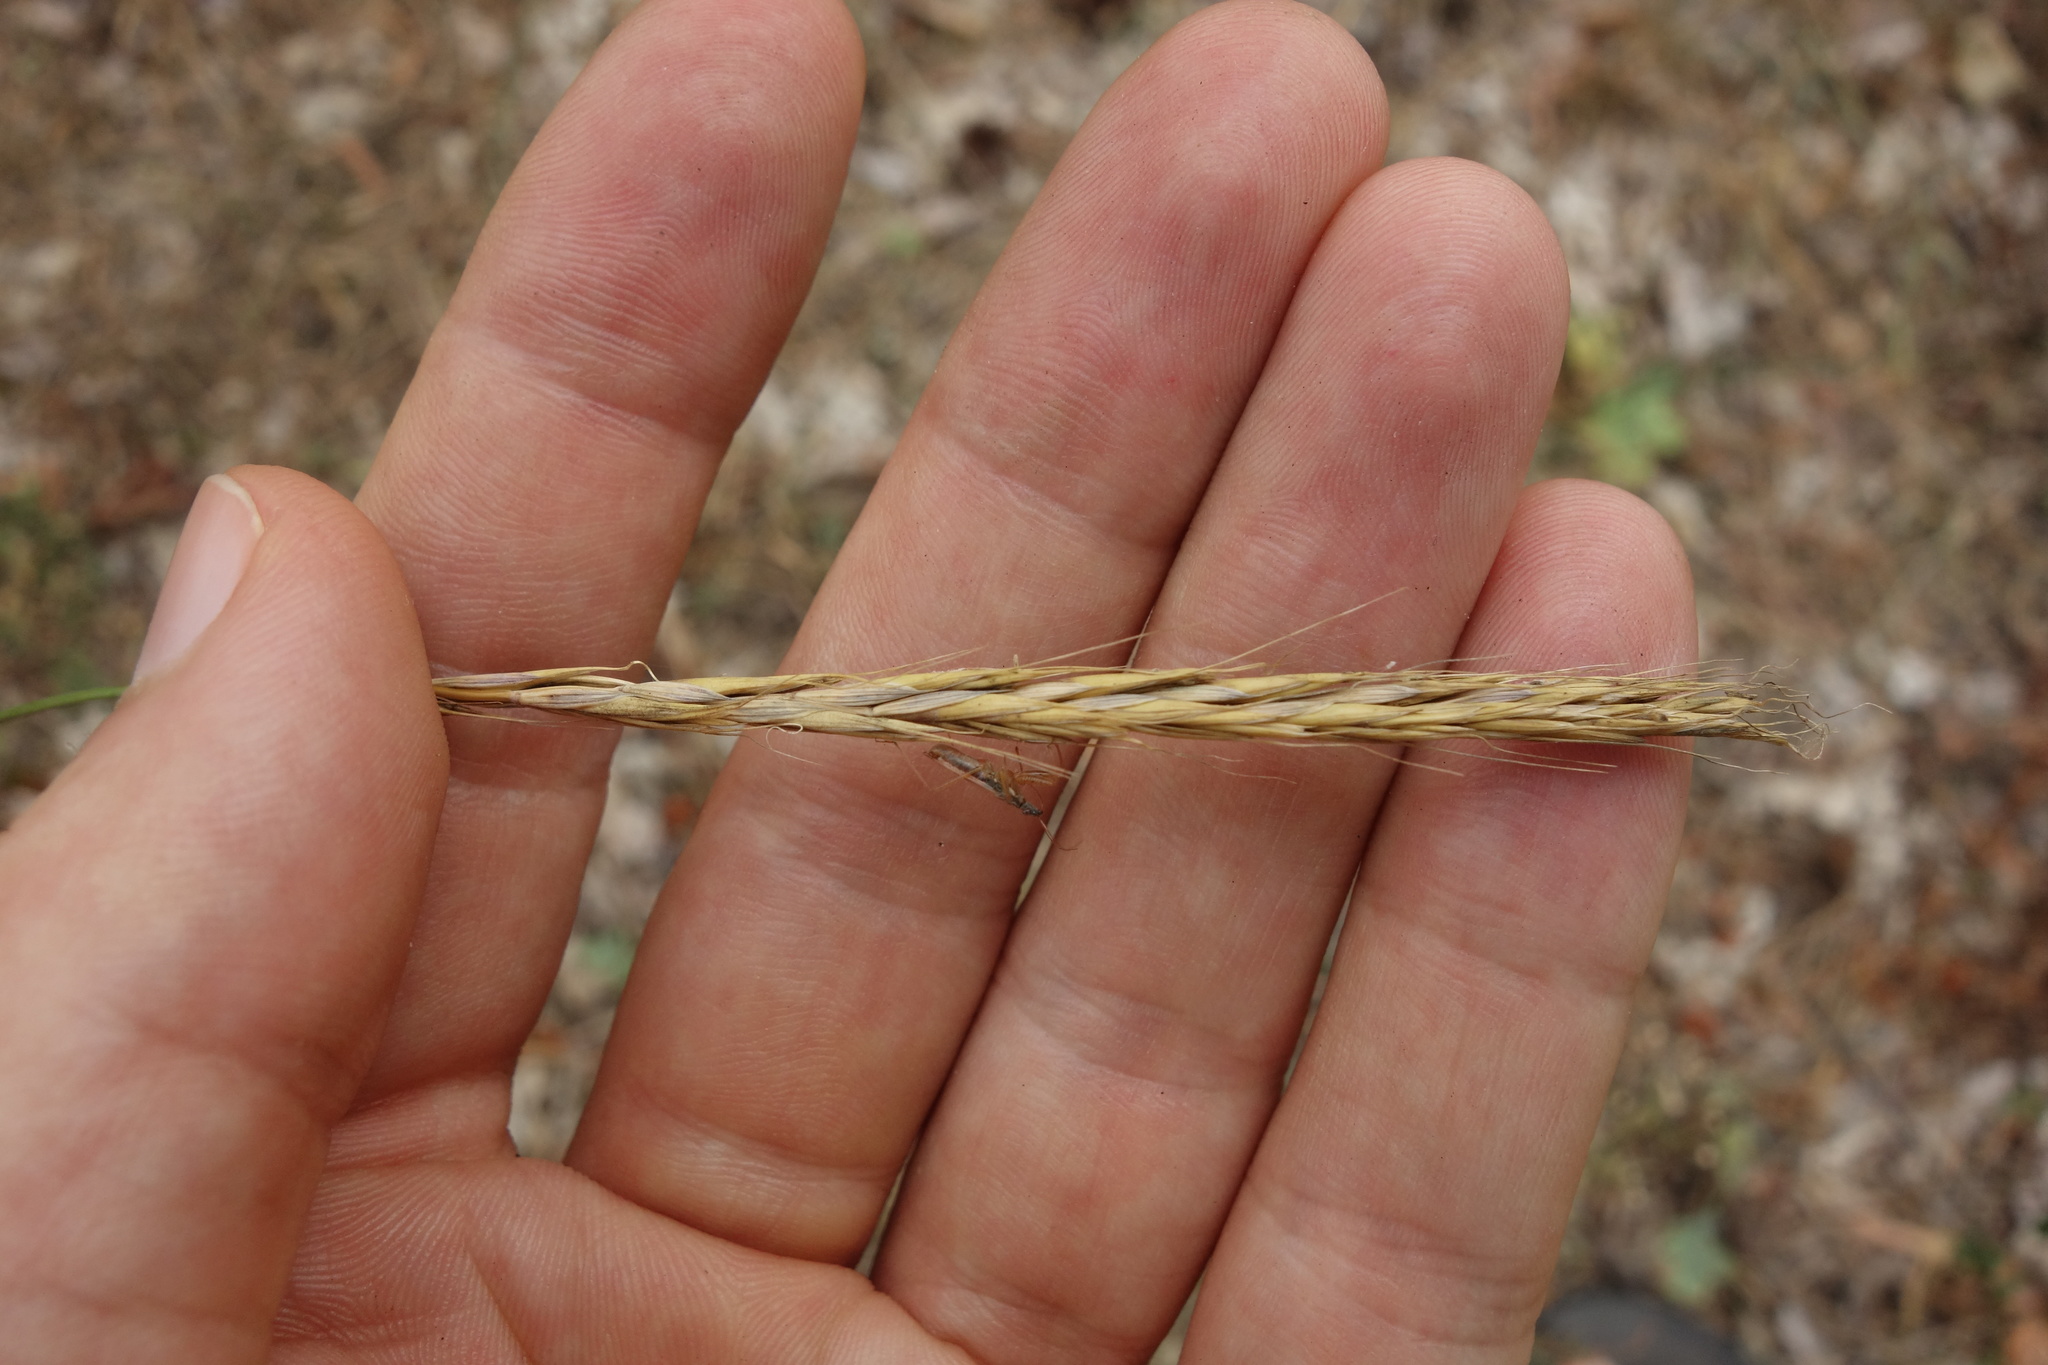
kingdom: Plantae
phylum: Tracheophyta
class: Liliopsida
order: Poales
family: Poaceae
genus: Elymus
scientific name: Elymus caninus
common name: Bearded couch
